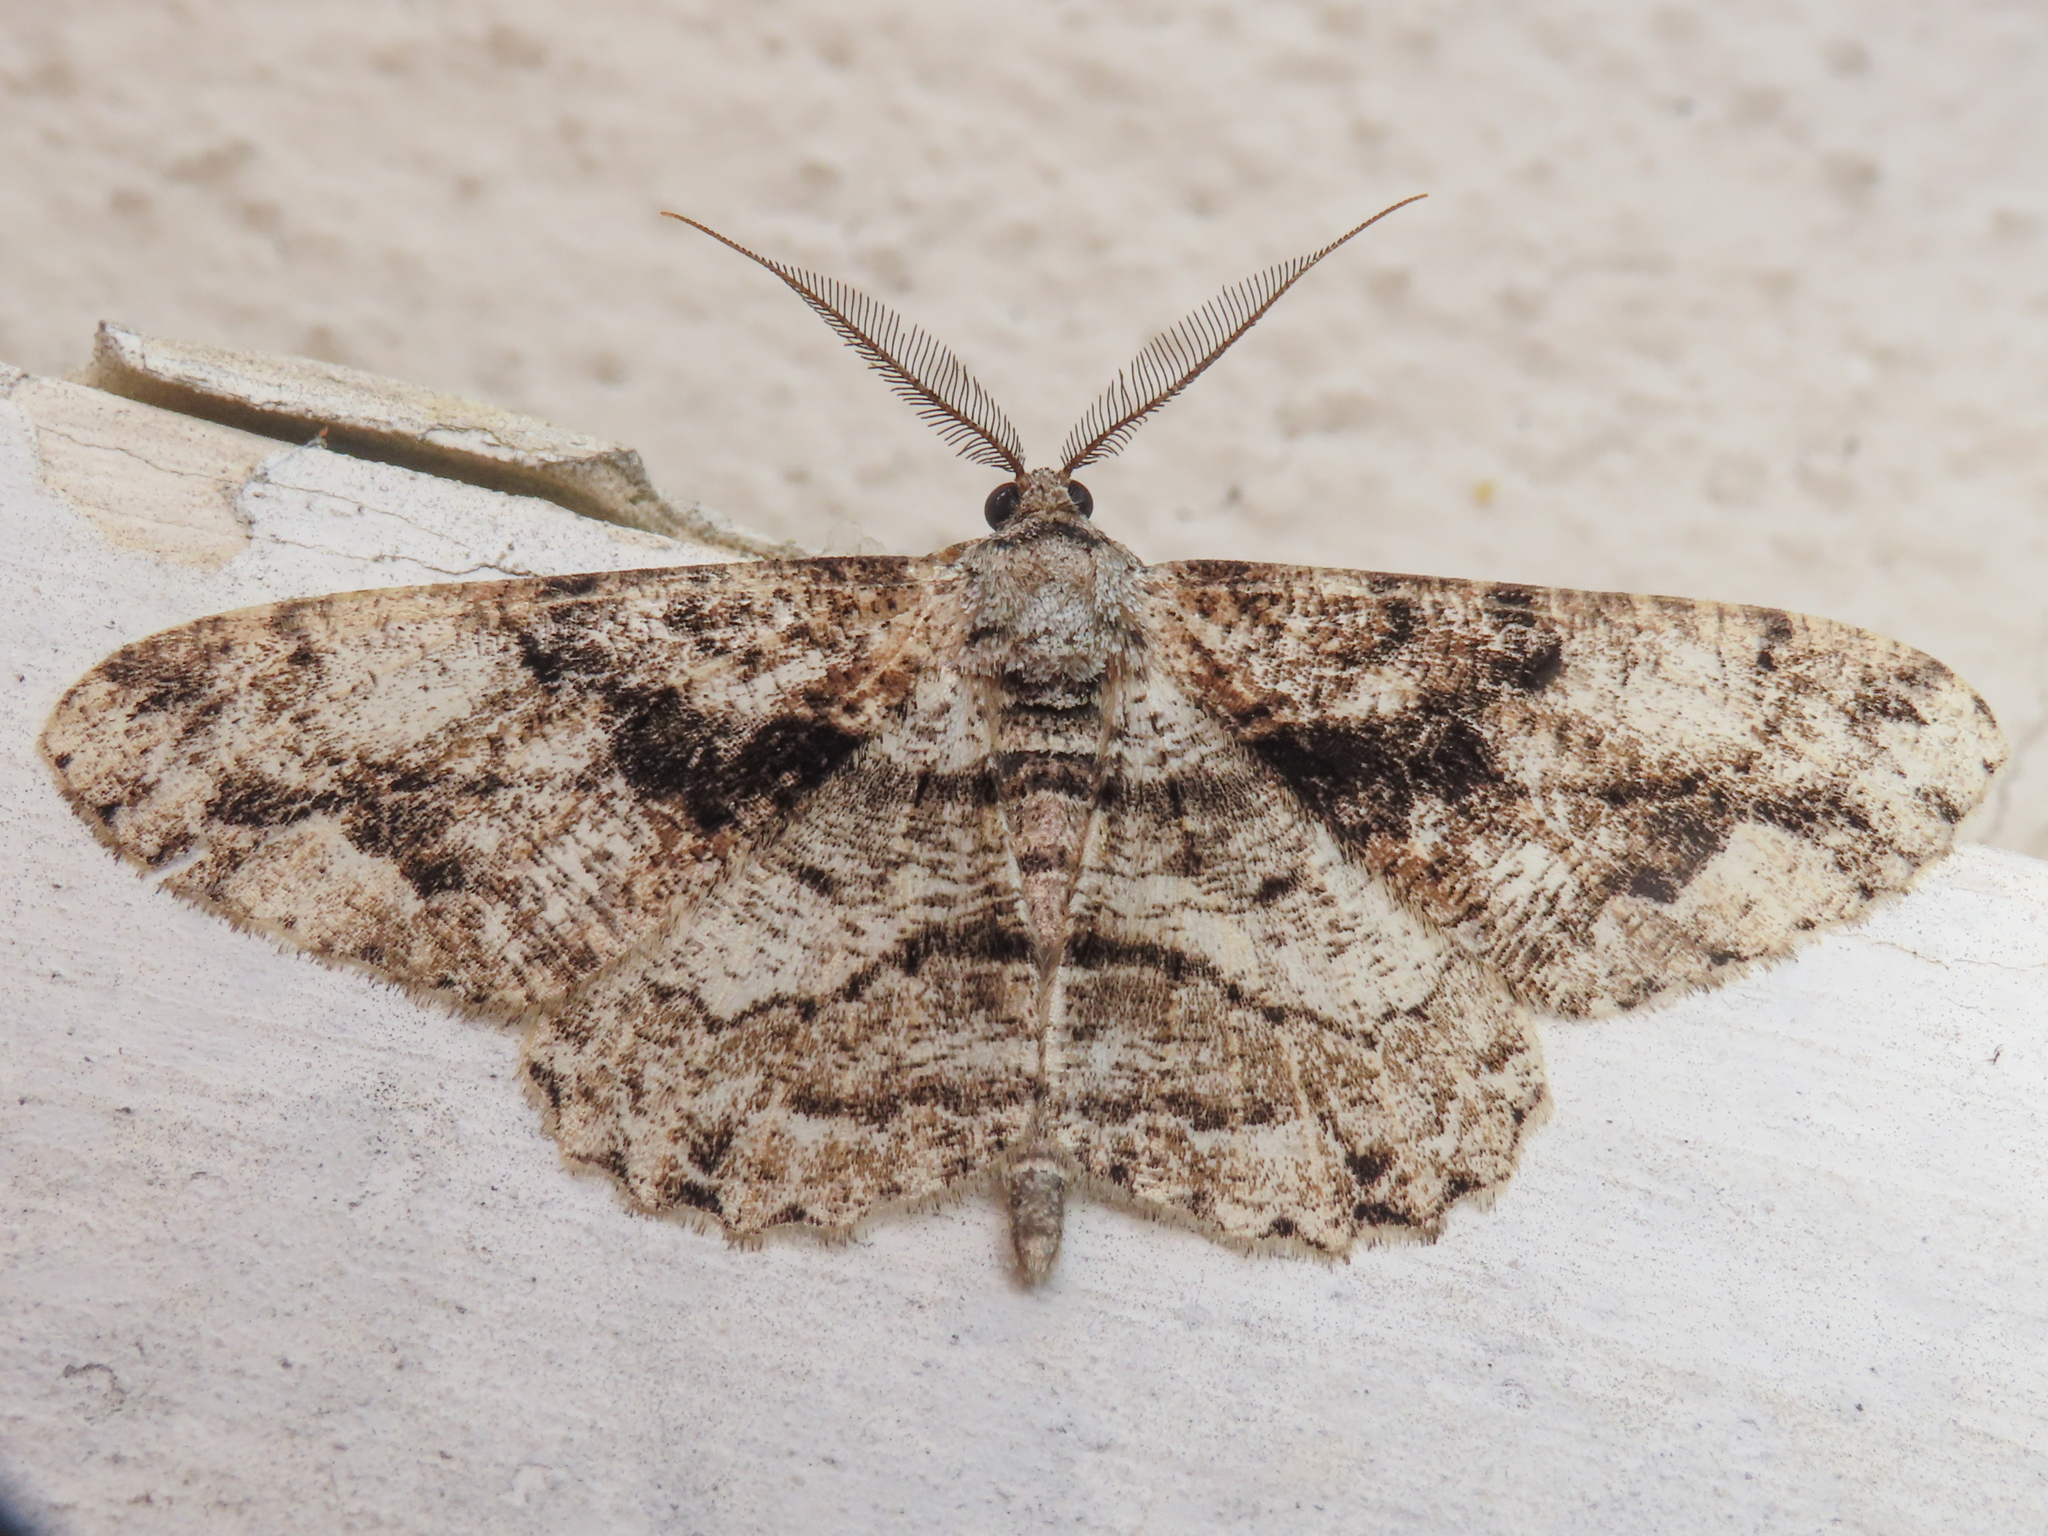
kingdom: Animalia
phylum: Arthropoda
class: Insecta
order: Lepidoptera
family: Geometridae
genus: Peribatodes
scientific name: Peribatodes umbraria
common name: Olive-tree beauty
